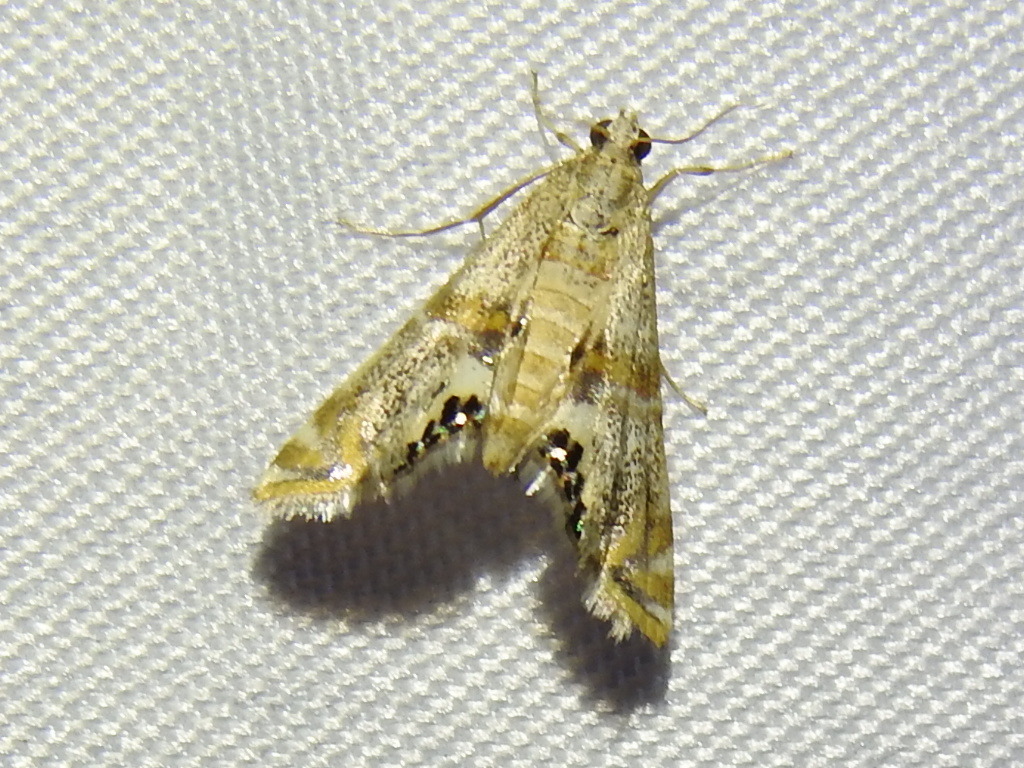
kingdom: Animalia
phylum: Arthropoda
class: Insecta
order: Lepidoptera
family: Crambidae
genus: Petrophila
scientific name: Petrophila bifascialis
